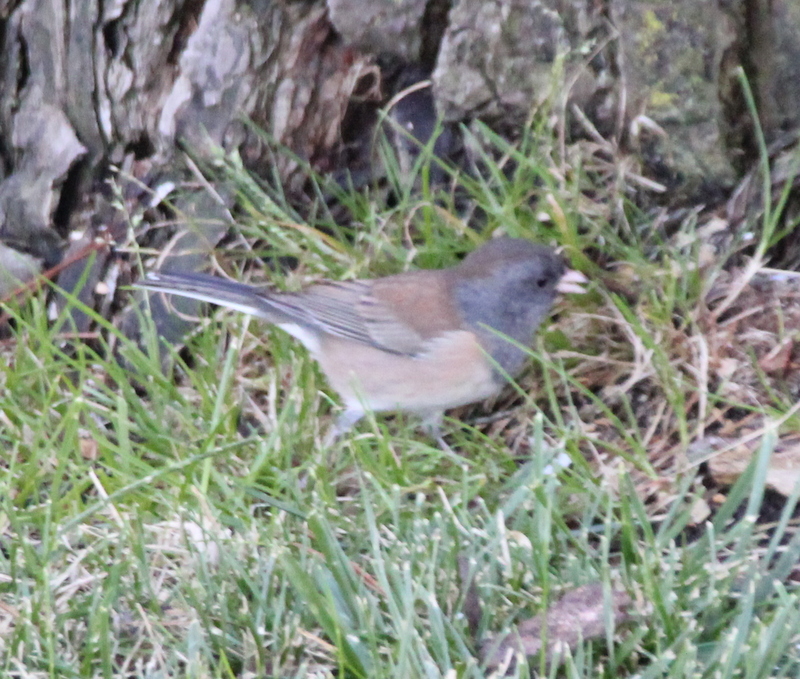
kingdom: Animalia
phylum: Chordata
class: Aves
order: Passeriformes
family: Passerellidae
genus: Junco
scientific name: Junco hyemalis
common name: Dark-eyed junco
